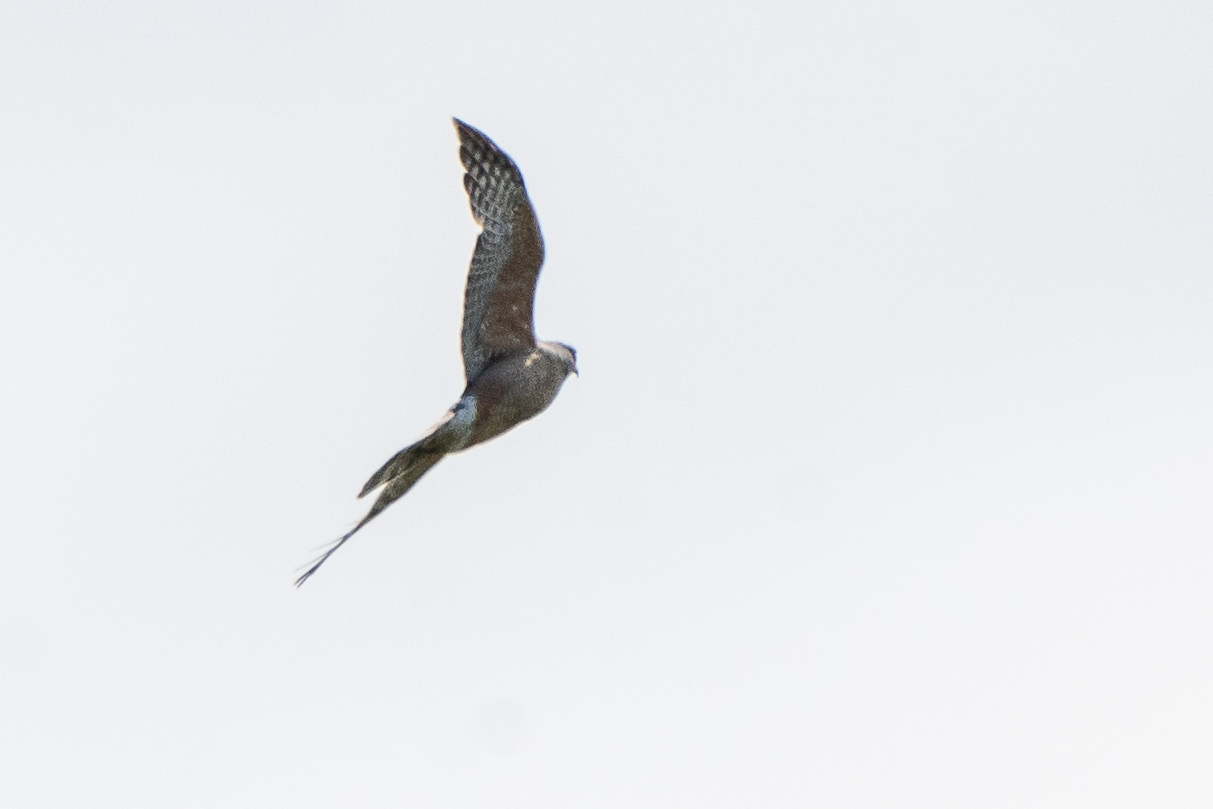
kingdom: Animalia
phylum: Chordata
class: Aves
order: Accipitriformes
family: Accipitridae
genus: Accipiter
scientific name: Accipiter cooperii
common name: Cooper's hawk
